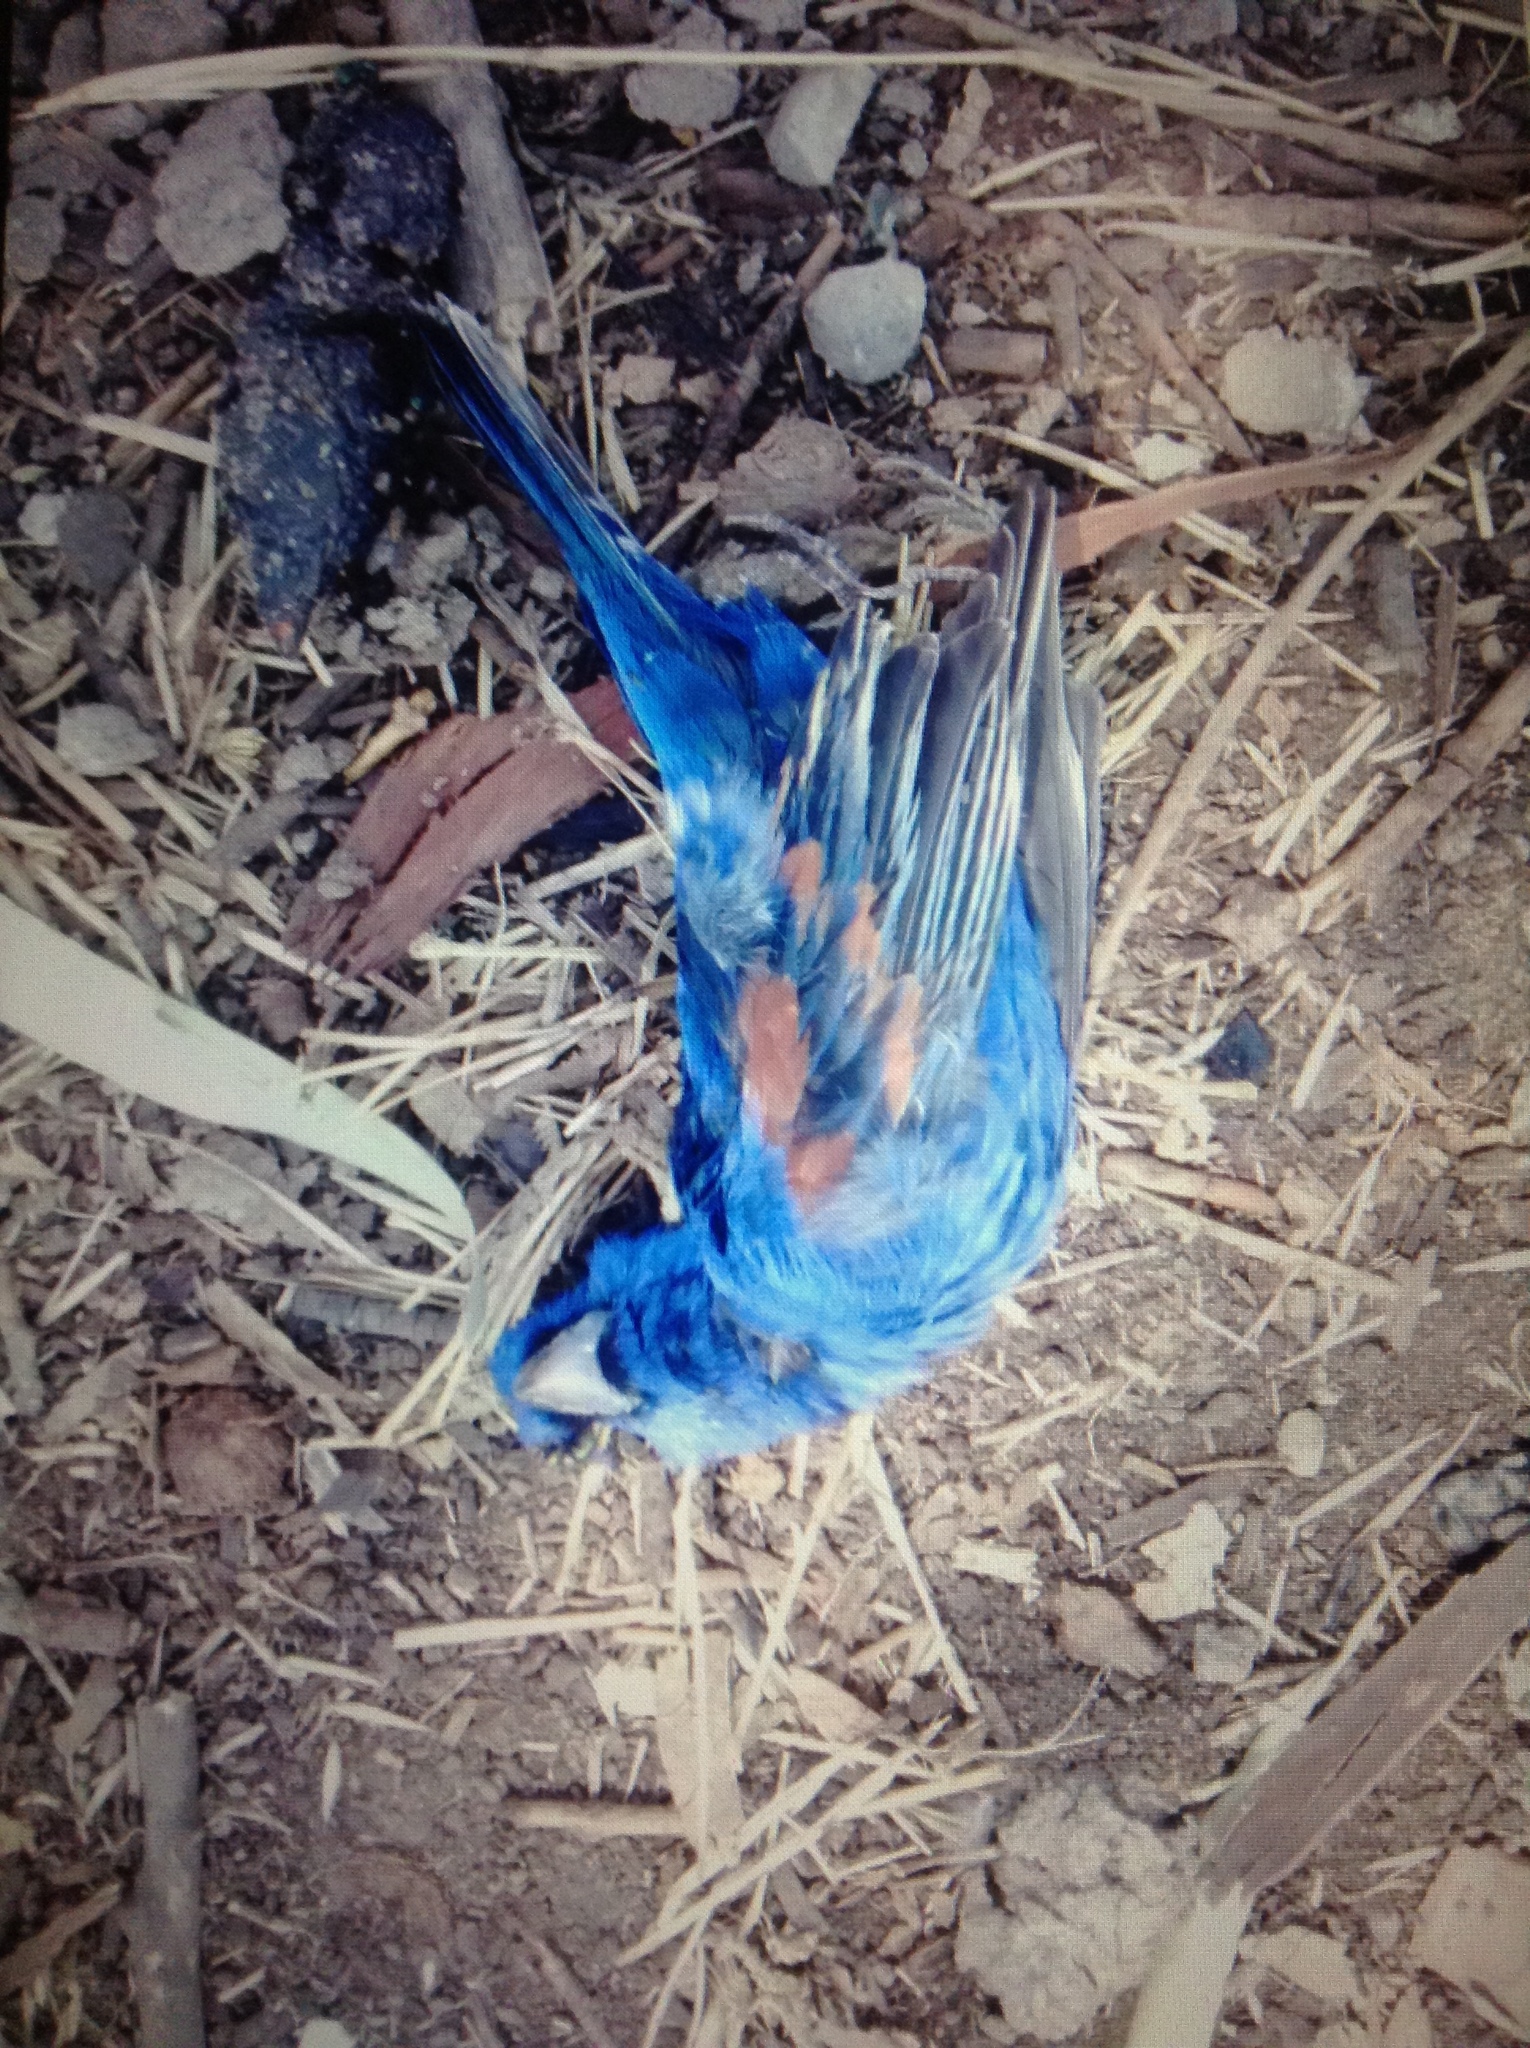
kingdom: Animalia
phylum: Chordata
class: Aves
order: Passeriformes
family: Cardinalidae
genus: Passerina
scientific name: Passerina caerulea
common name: Blue grosbeak
